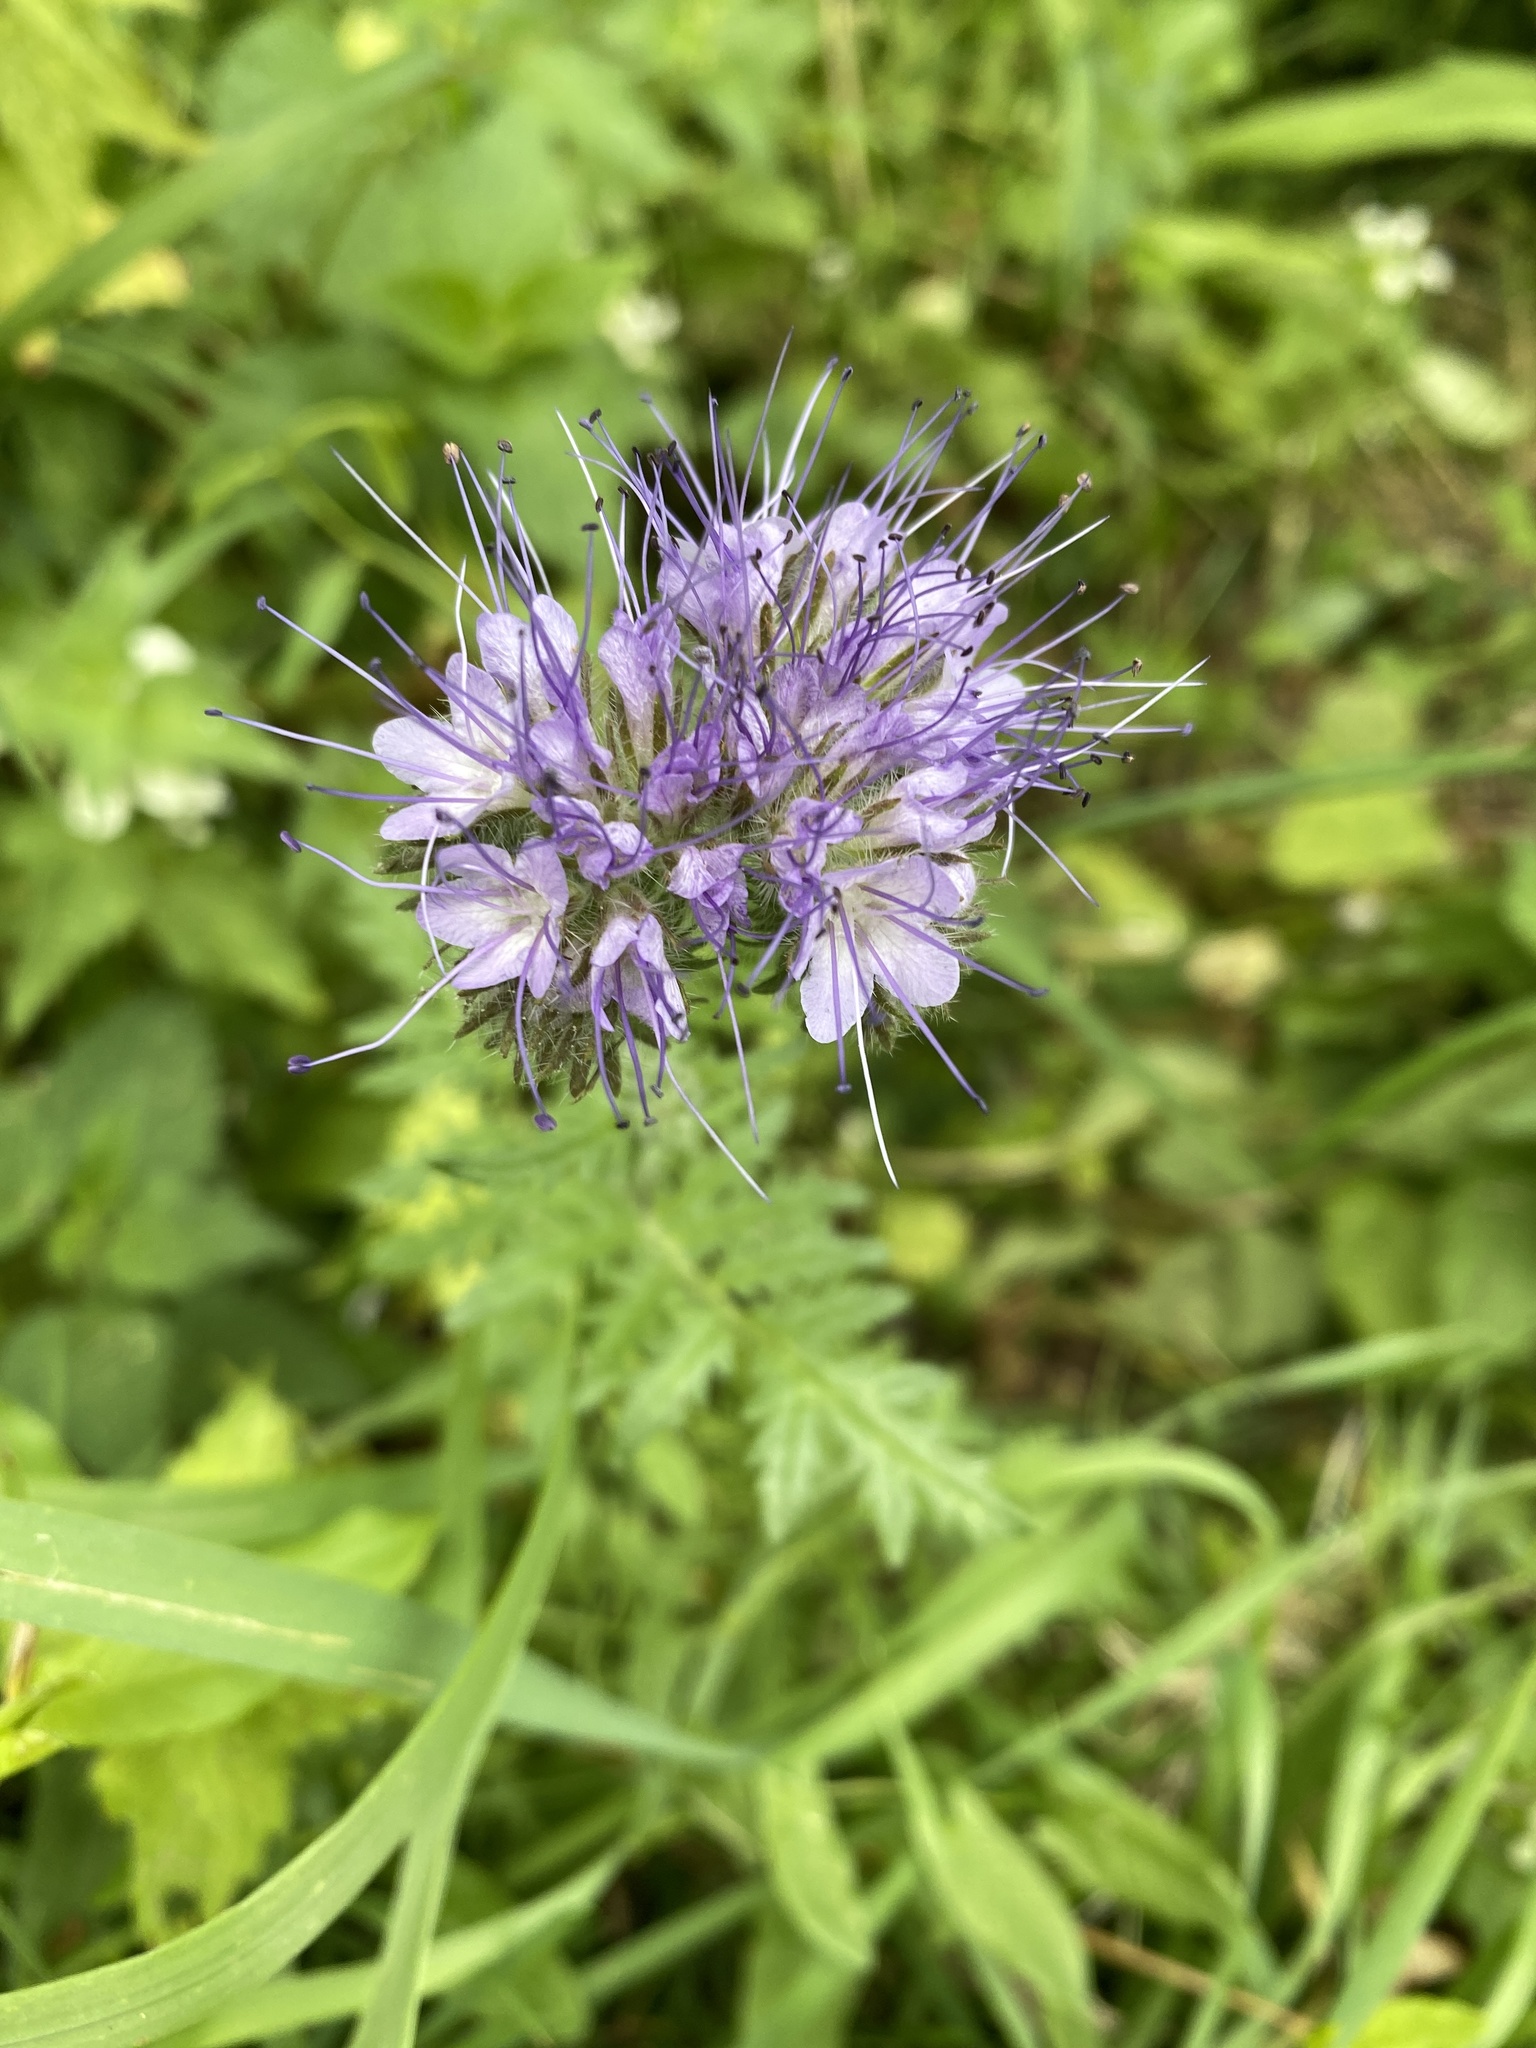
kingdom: Plantae
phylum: Tracheophyta
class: Magnoliopsida
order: Boraginales
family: Hydrophyllaceae
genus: Phacelia
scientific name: Phacelia tanacetifolia
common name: Phacelia
